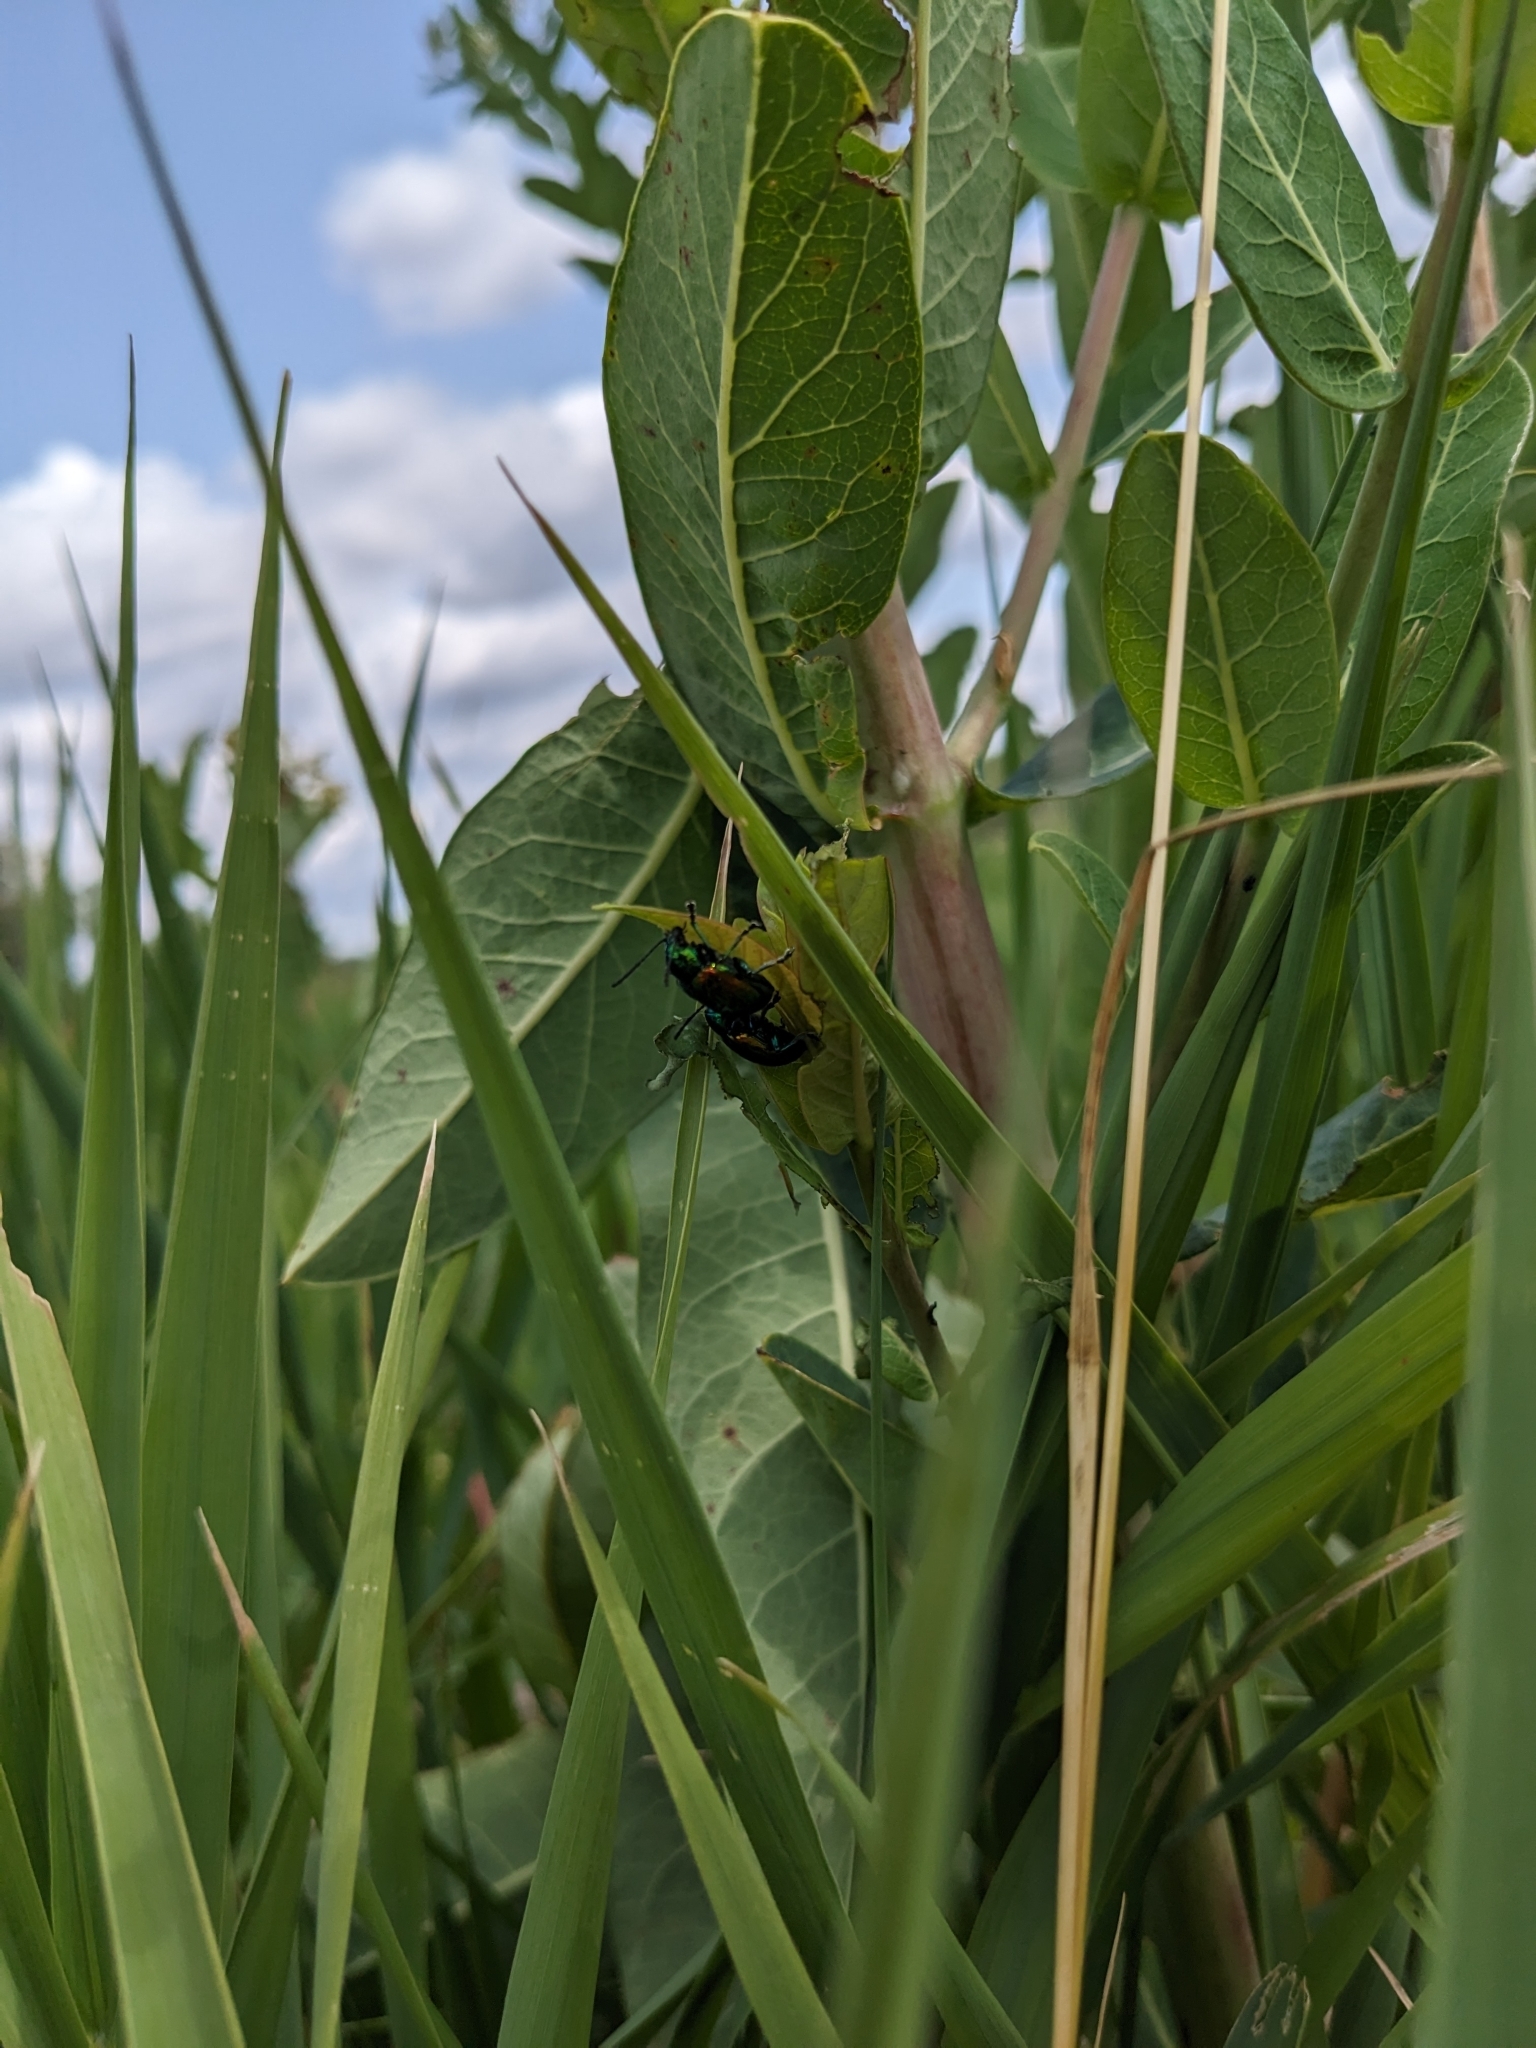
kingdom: Animalia
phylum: Arthropoda
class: Insecta
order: Coleoptera
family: Chrysomelidae
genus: Chrysochus
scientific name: Chrysochus auratus
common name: Dogbane leaf beetle
